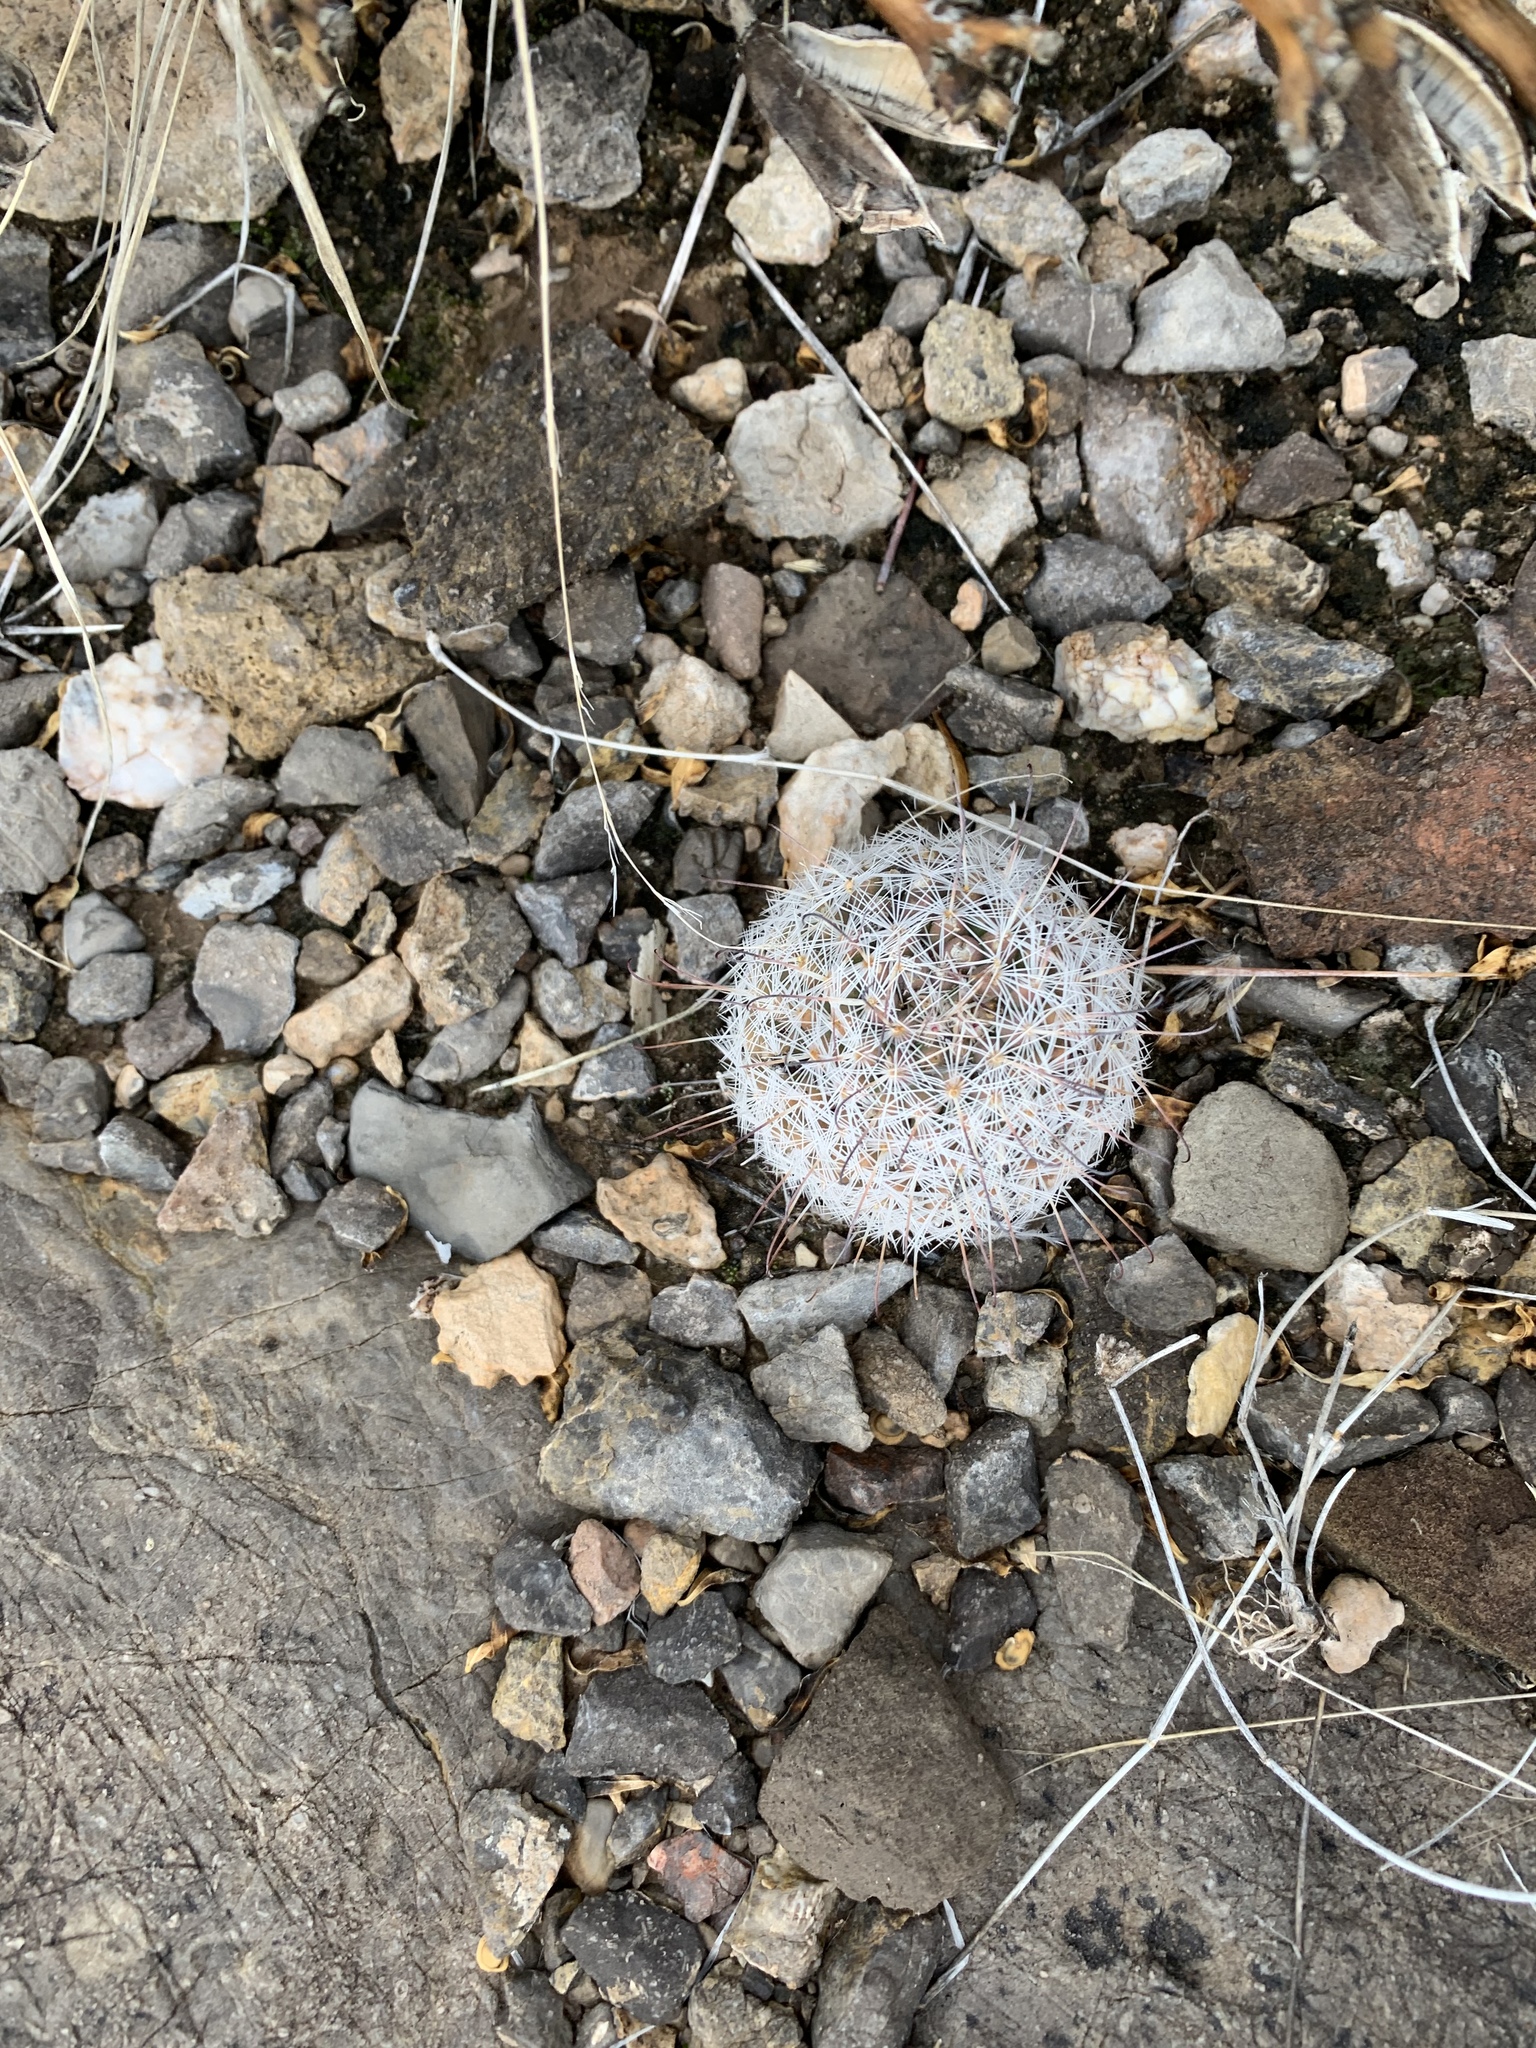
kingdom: Plantae
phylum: Tracheophyta
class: Magnoliopsida
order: Caryophyllales
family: Cactaceae
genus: Cochemiea
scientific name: Cochemiea grahamii
